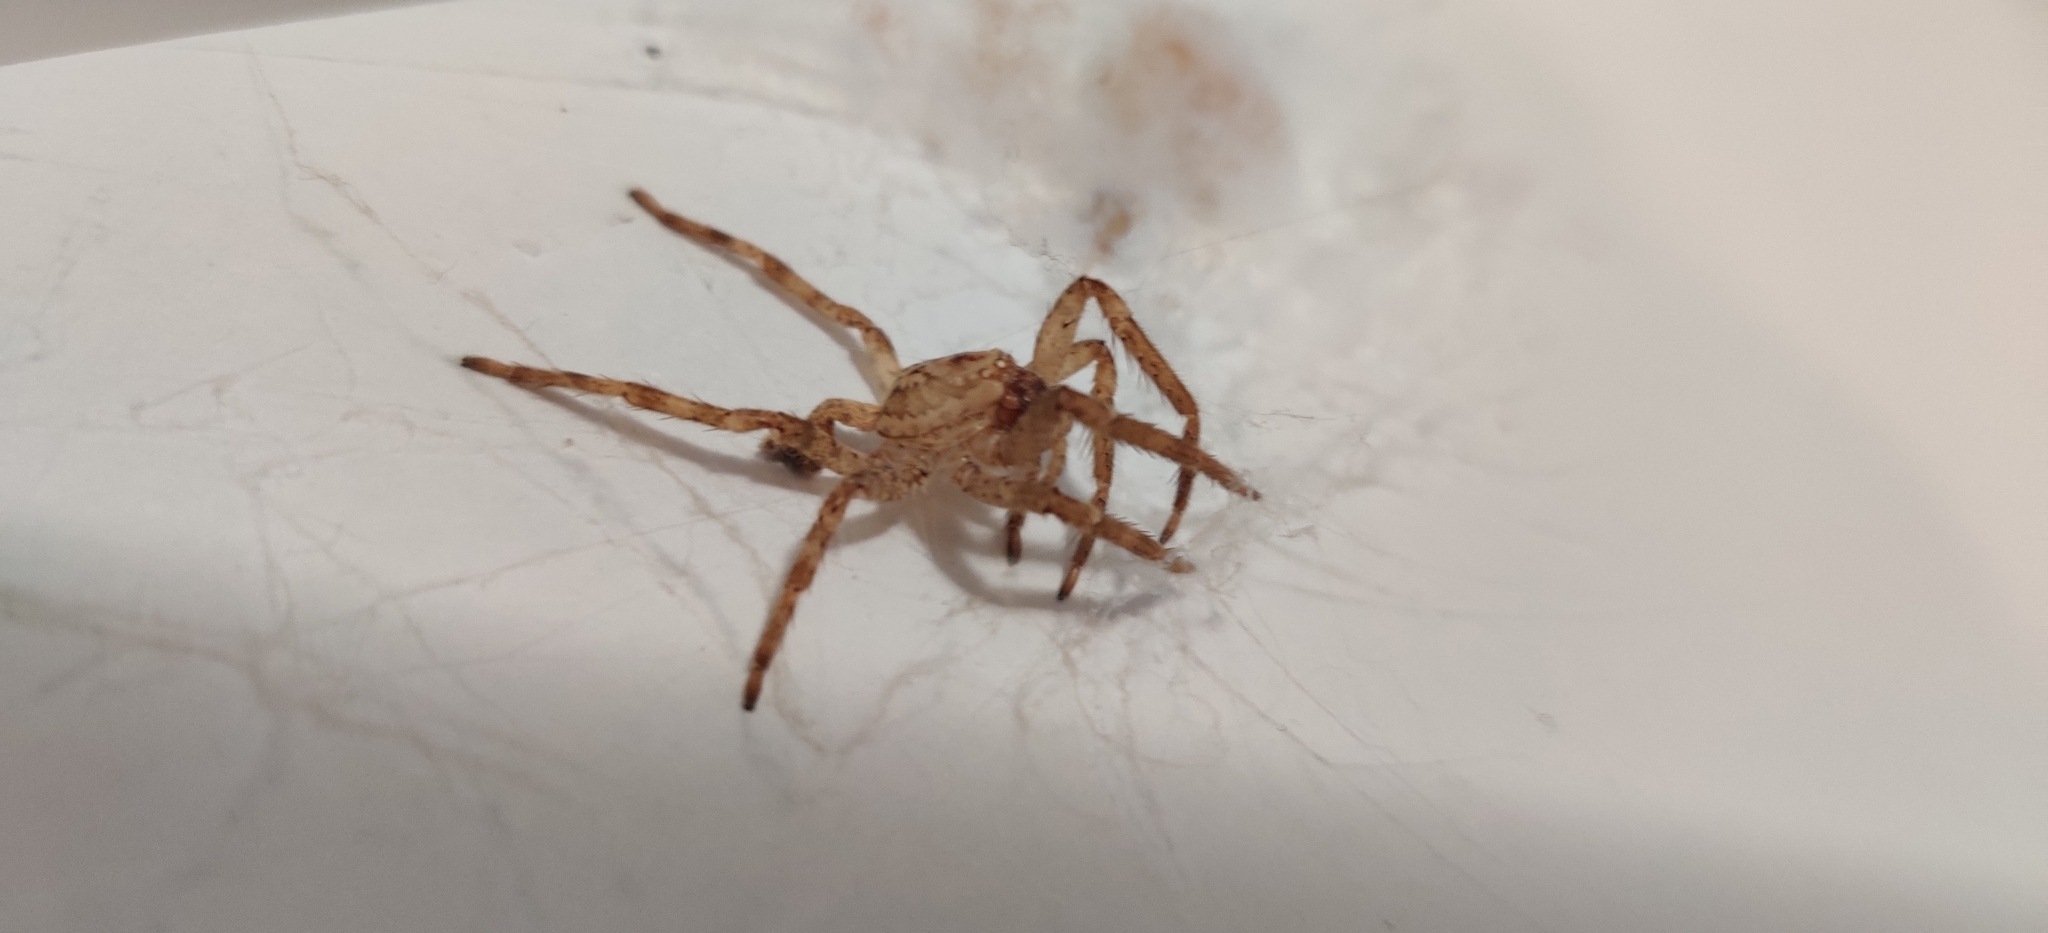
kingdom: Animalia
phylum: Arthropoda
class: Arachnida
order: Araneae
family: Zoropsidae
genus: Zoropsis
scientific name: Zoropsis spinimana
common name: Zoropsid spider
